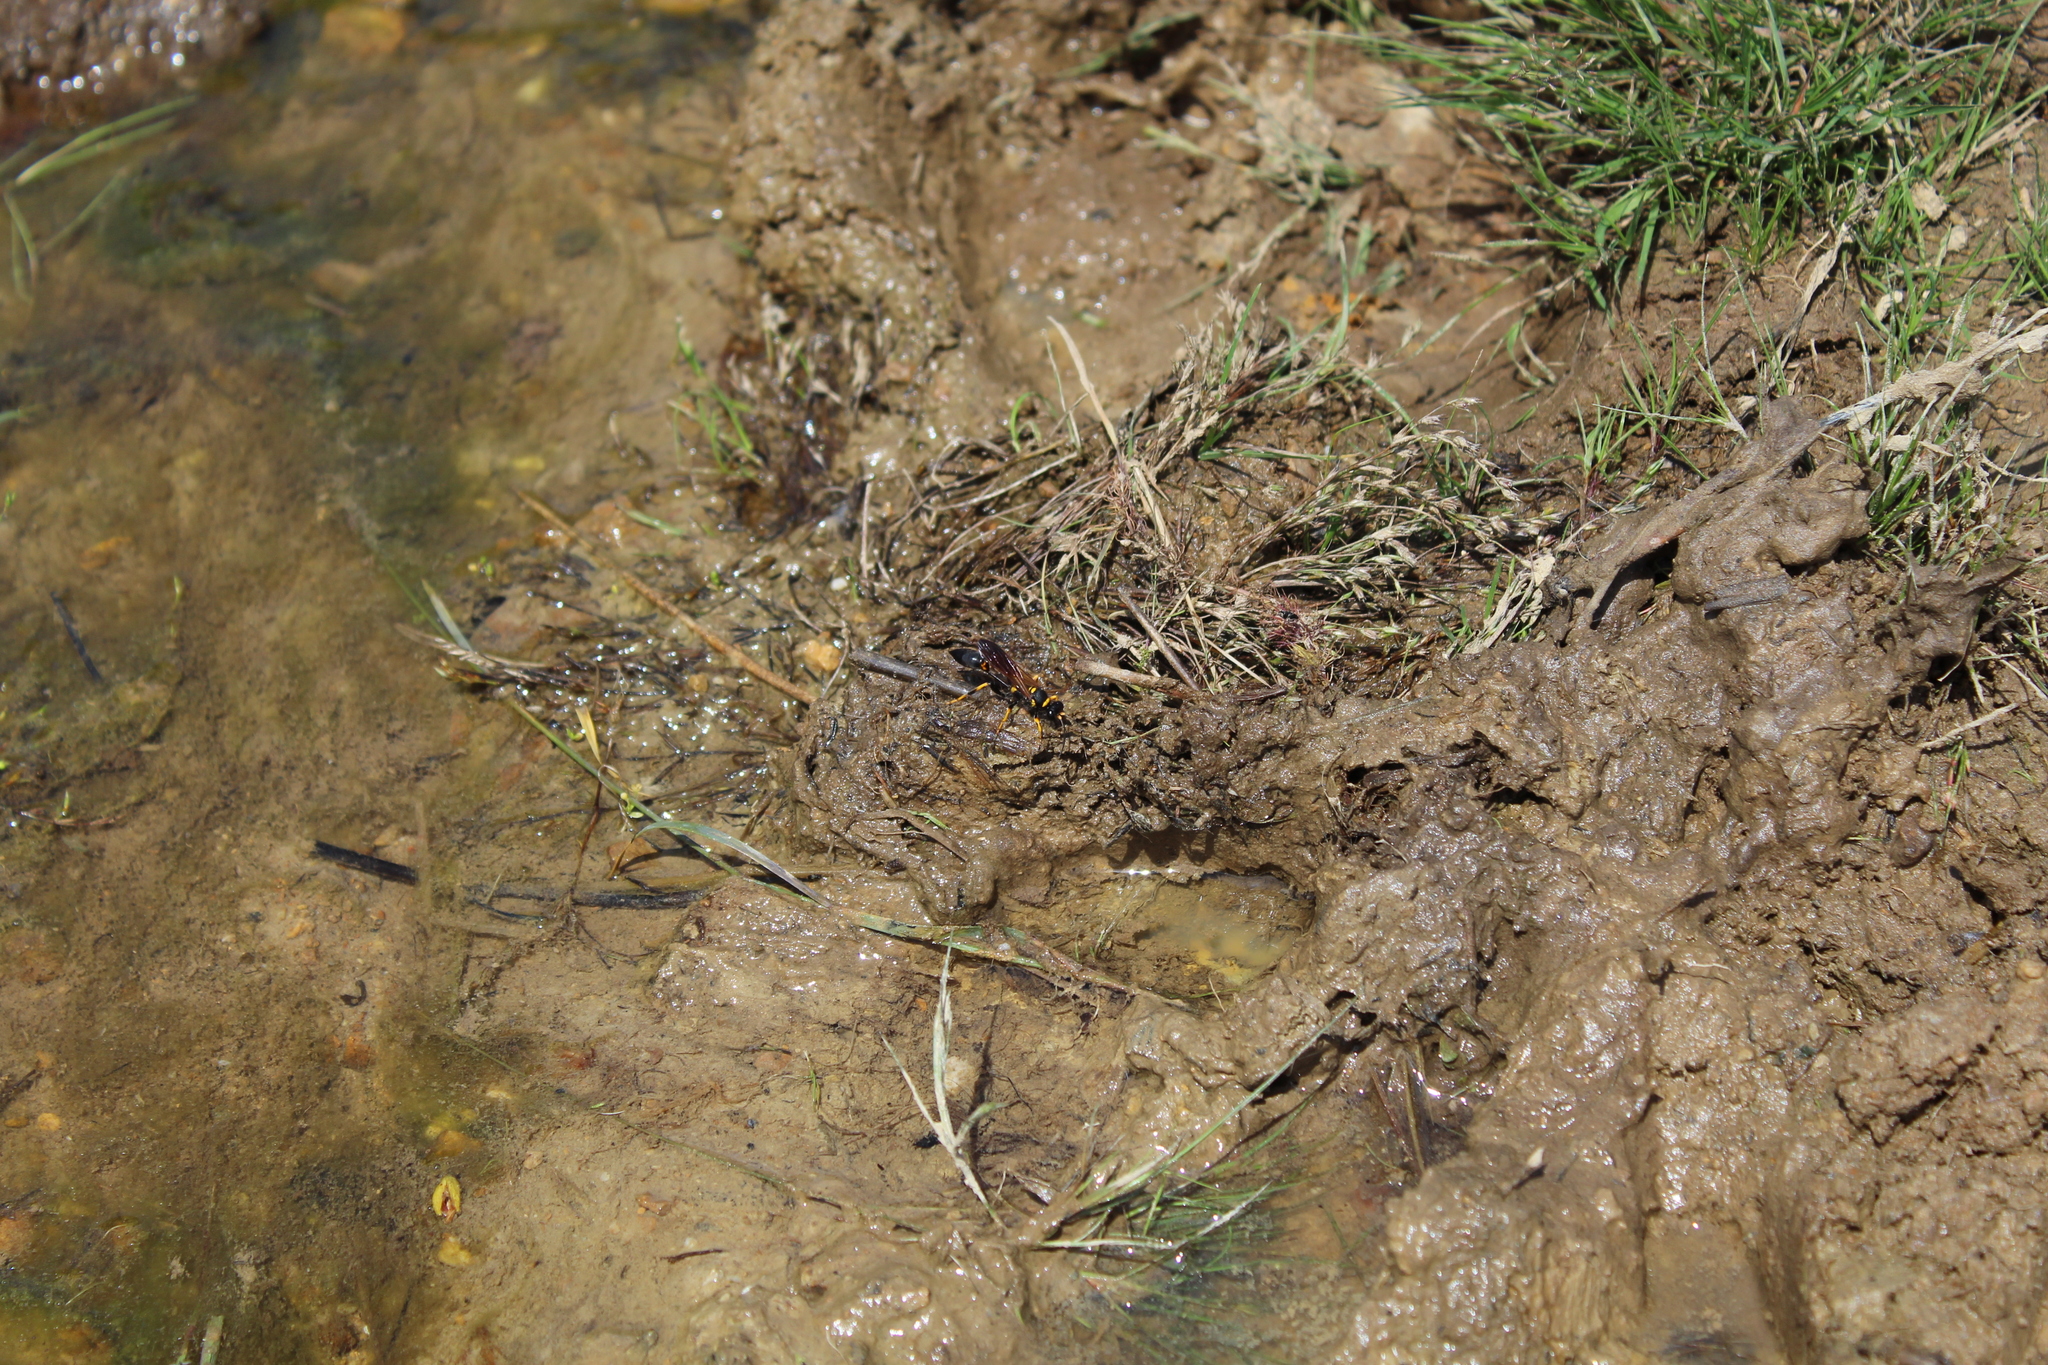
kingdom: Animalia
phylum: Arthropoda
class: Insecta
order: Hymenoptera
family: Sphecidae
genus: Sceliphron
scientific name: Sceliphron caementarium
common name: Mud dauber
